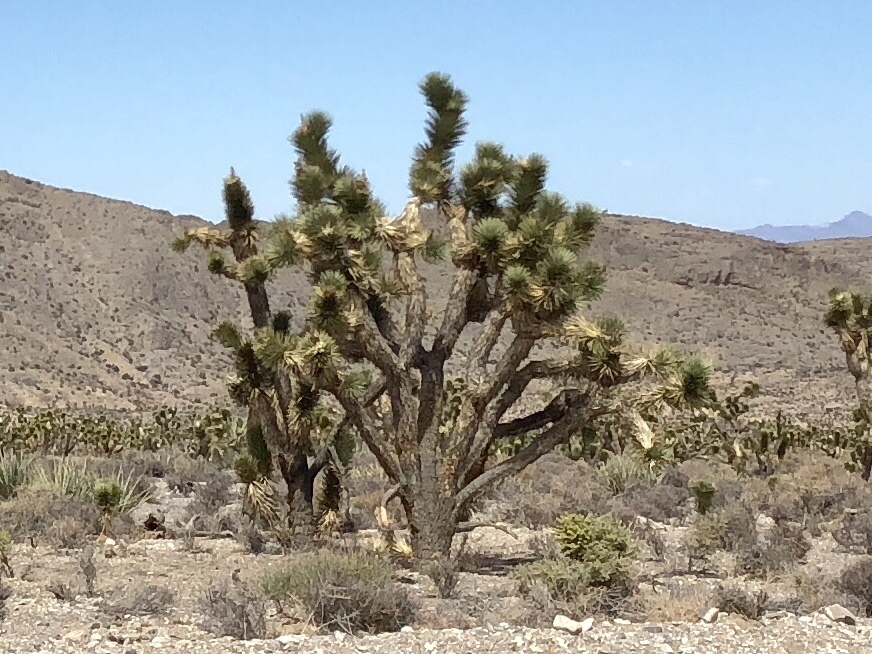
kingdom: Plantae
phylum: Tracheophyta
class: Liliopsida
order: Asparagales
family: Asparagaceae
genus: Yucca
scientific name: Yucca brevifolia
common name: Joshua tree
